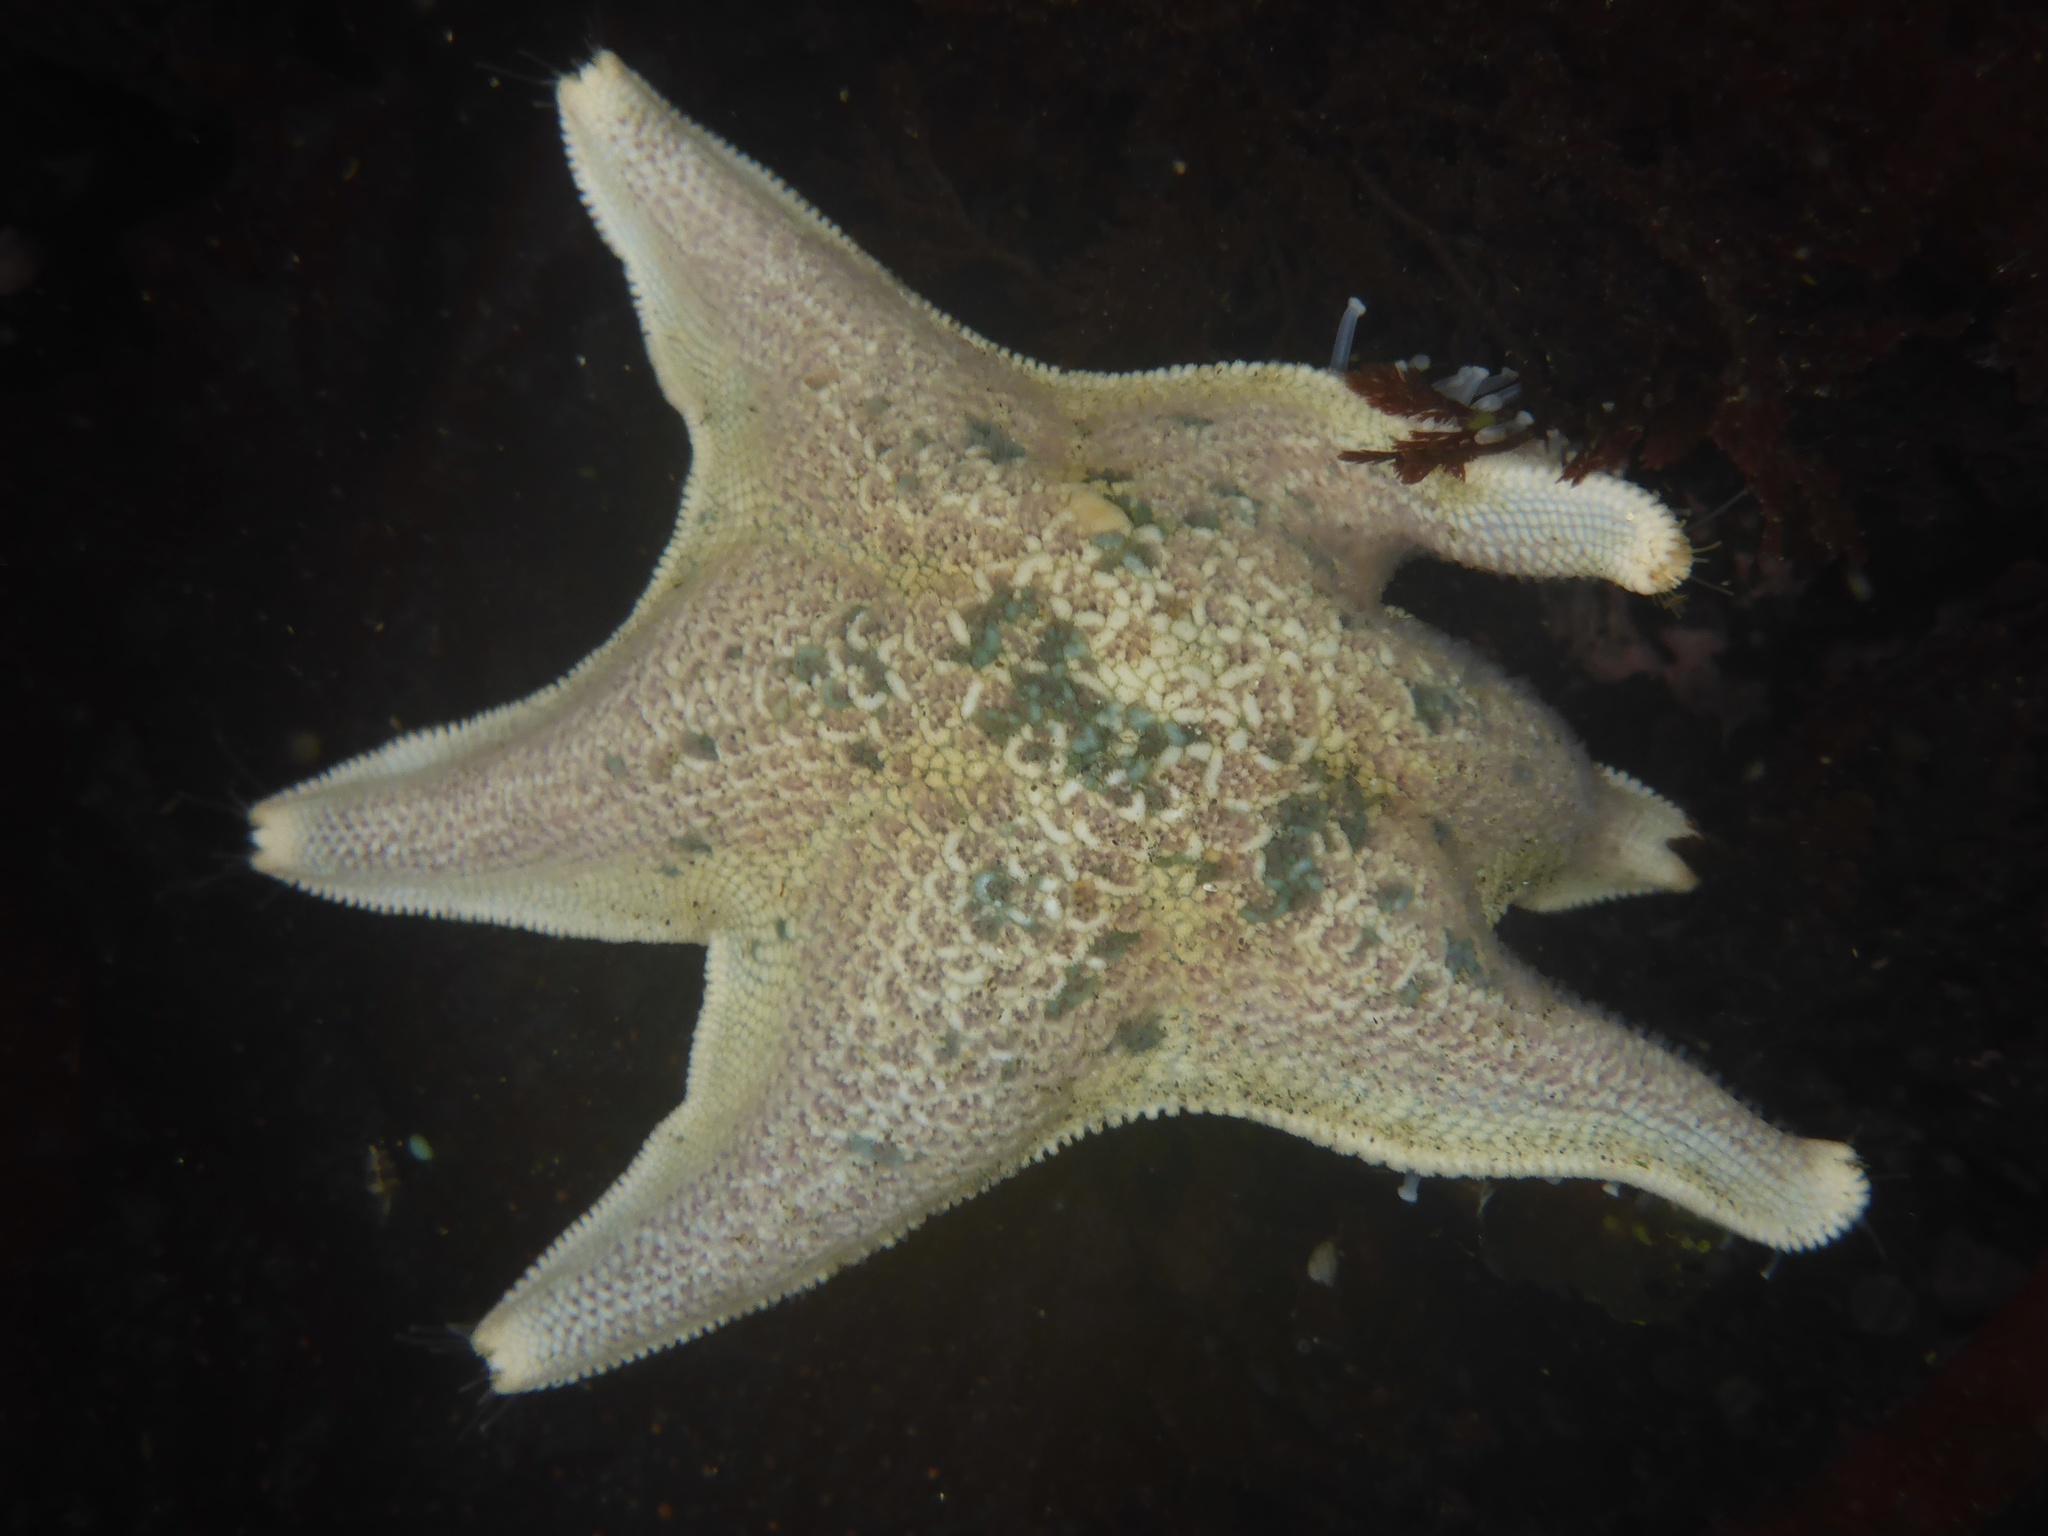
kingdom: Animalia
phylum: Echinodermata
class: Asteroidea
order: Valvatida
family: Asterinidae
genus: Patiria
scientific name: Patiria miniata
